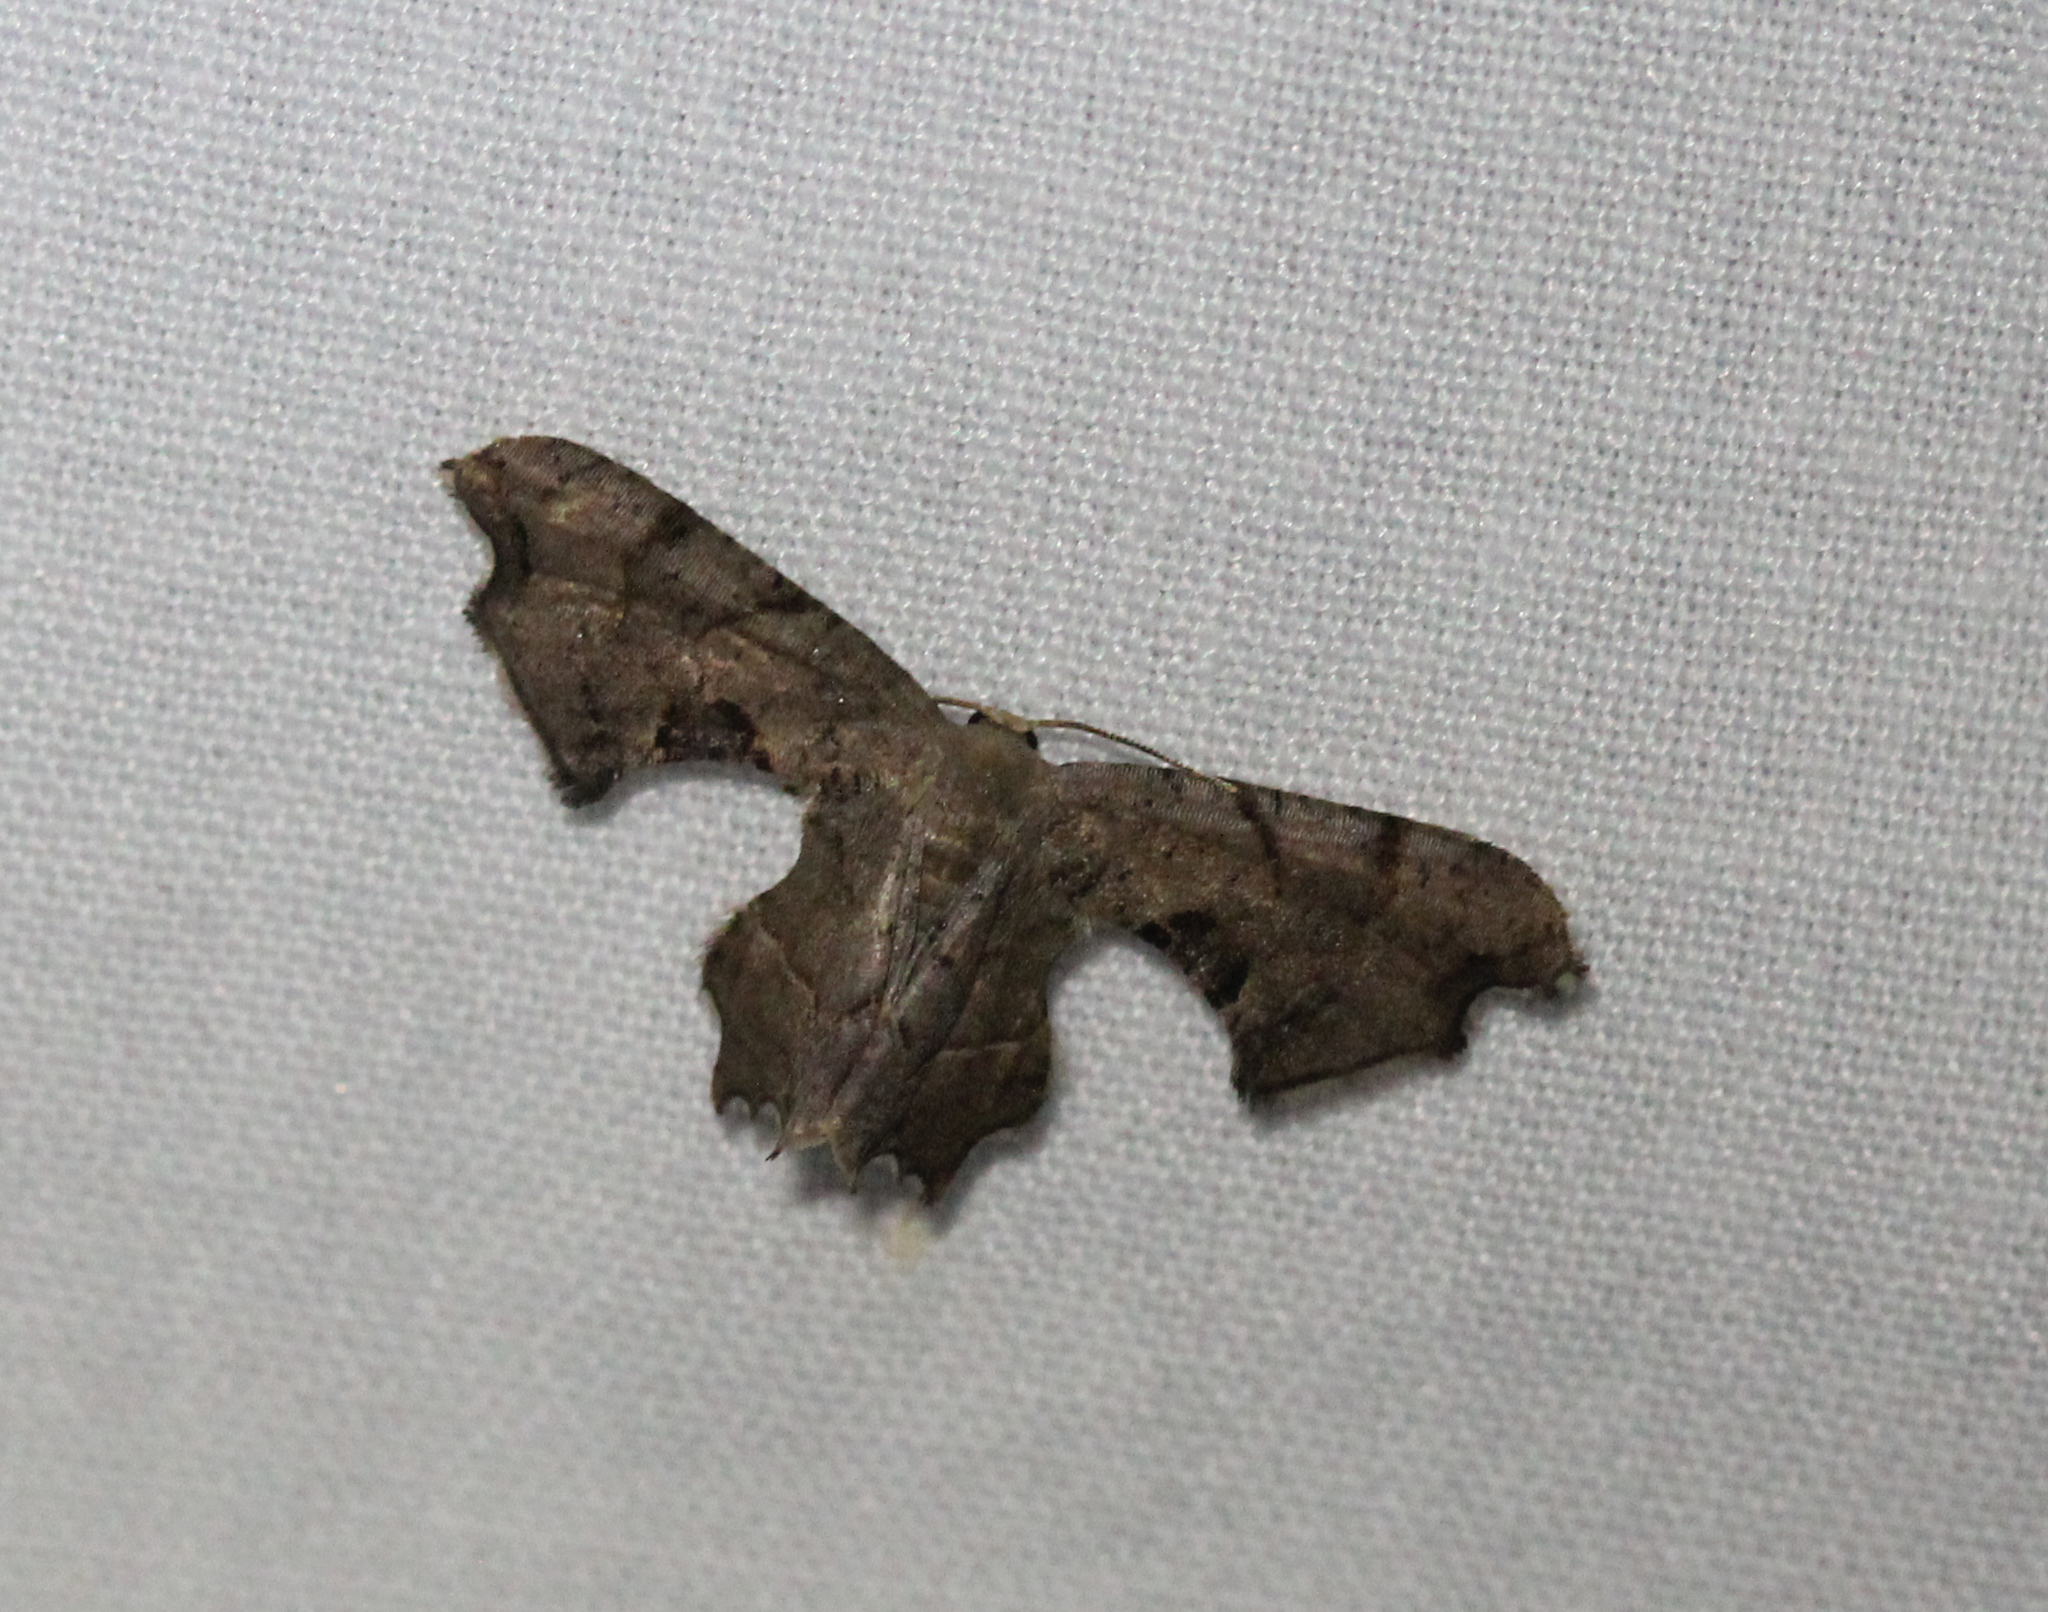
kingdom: Animalia
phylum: Arthropoda
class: Insecta
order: Lepidoptera
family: Uraniidae
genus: Epiplema
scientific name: Epiplema Calledapteryx dryopterata
